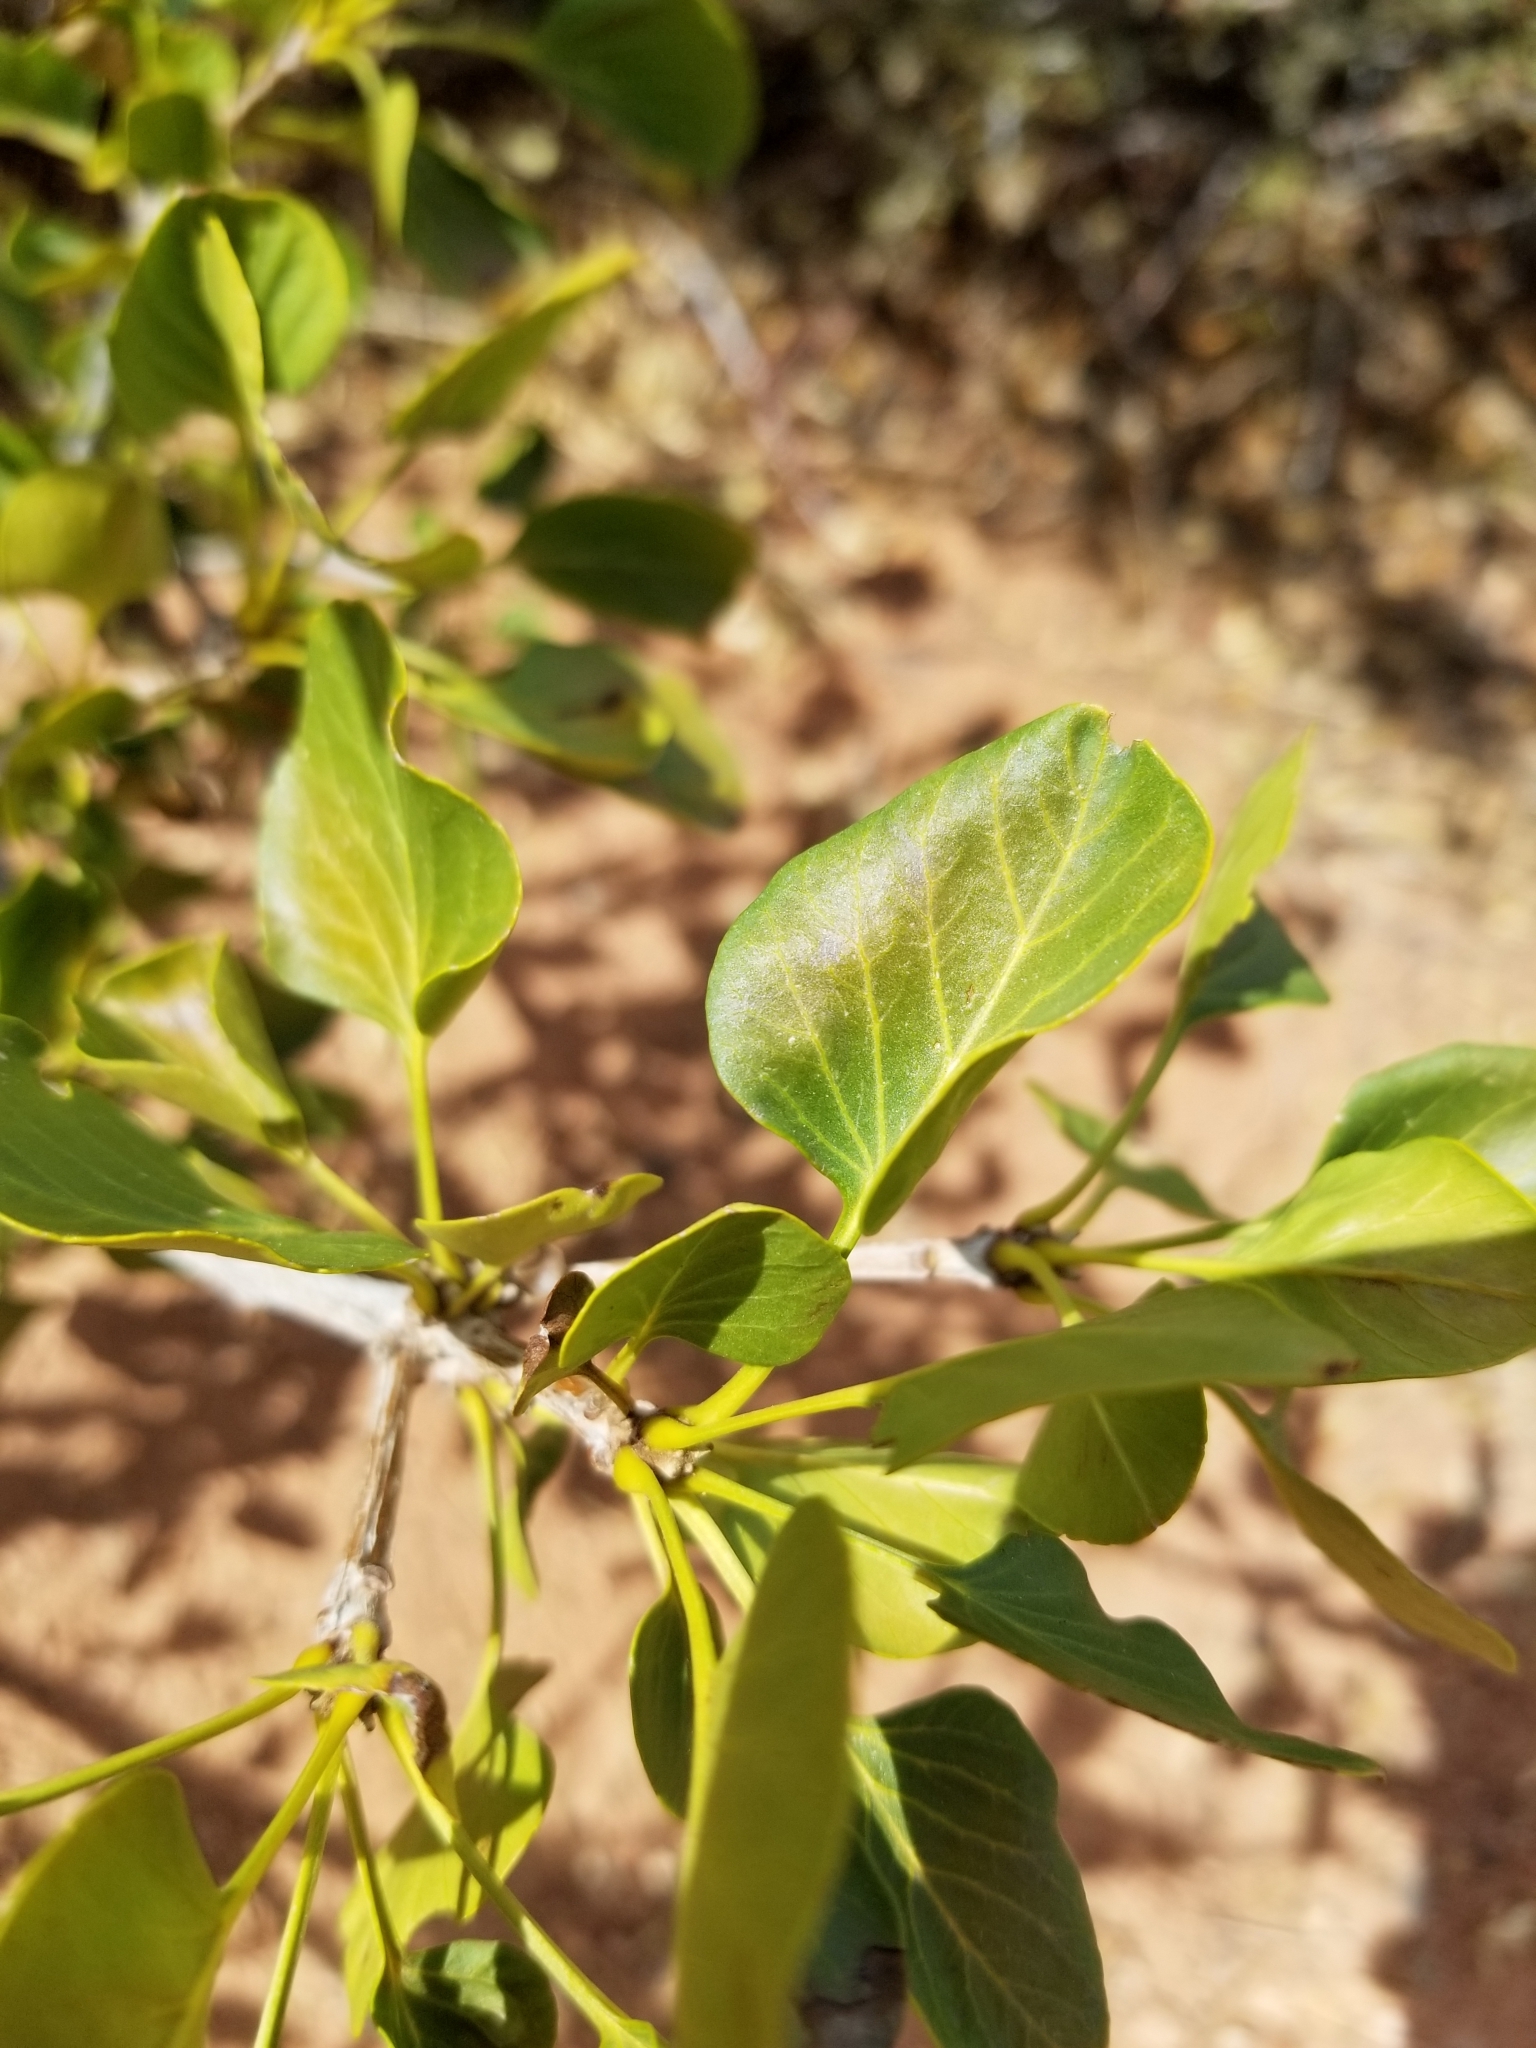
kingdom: Plantae
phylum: Tracheophyta
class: Magnoliopsida
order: Malpighiales
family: Salicaceae
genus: Populus
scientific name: Populus tremuloides
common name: Quaking aspen
